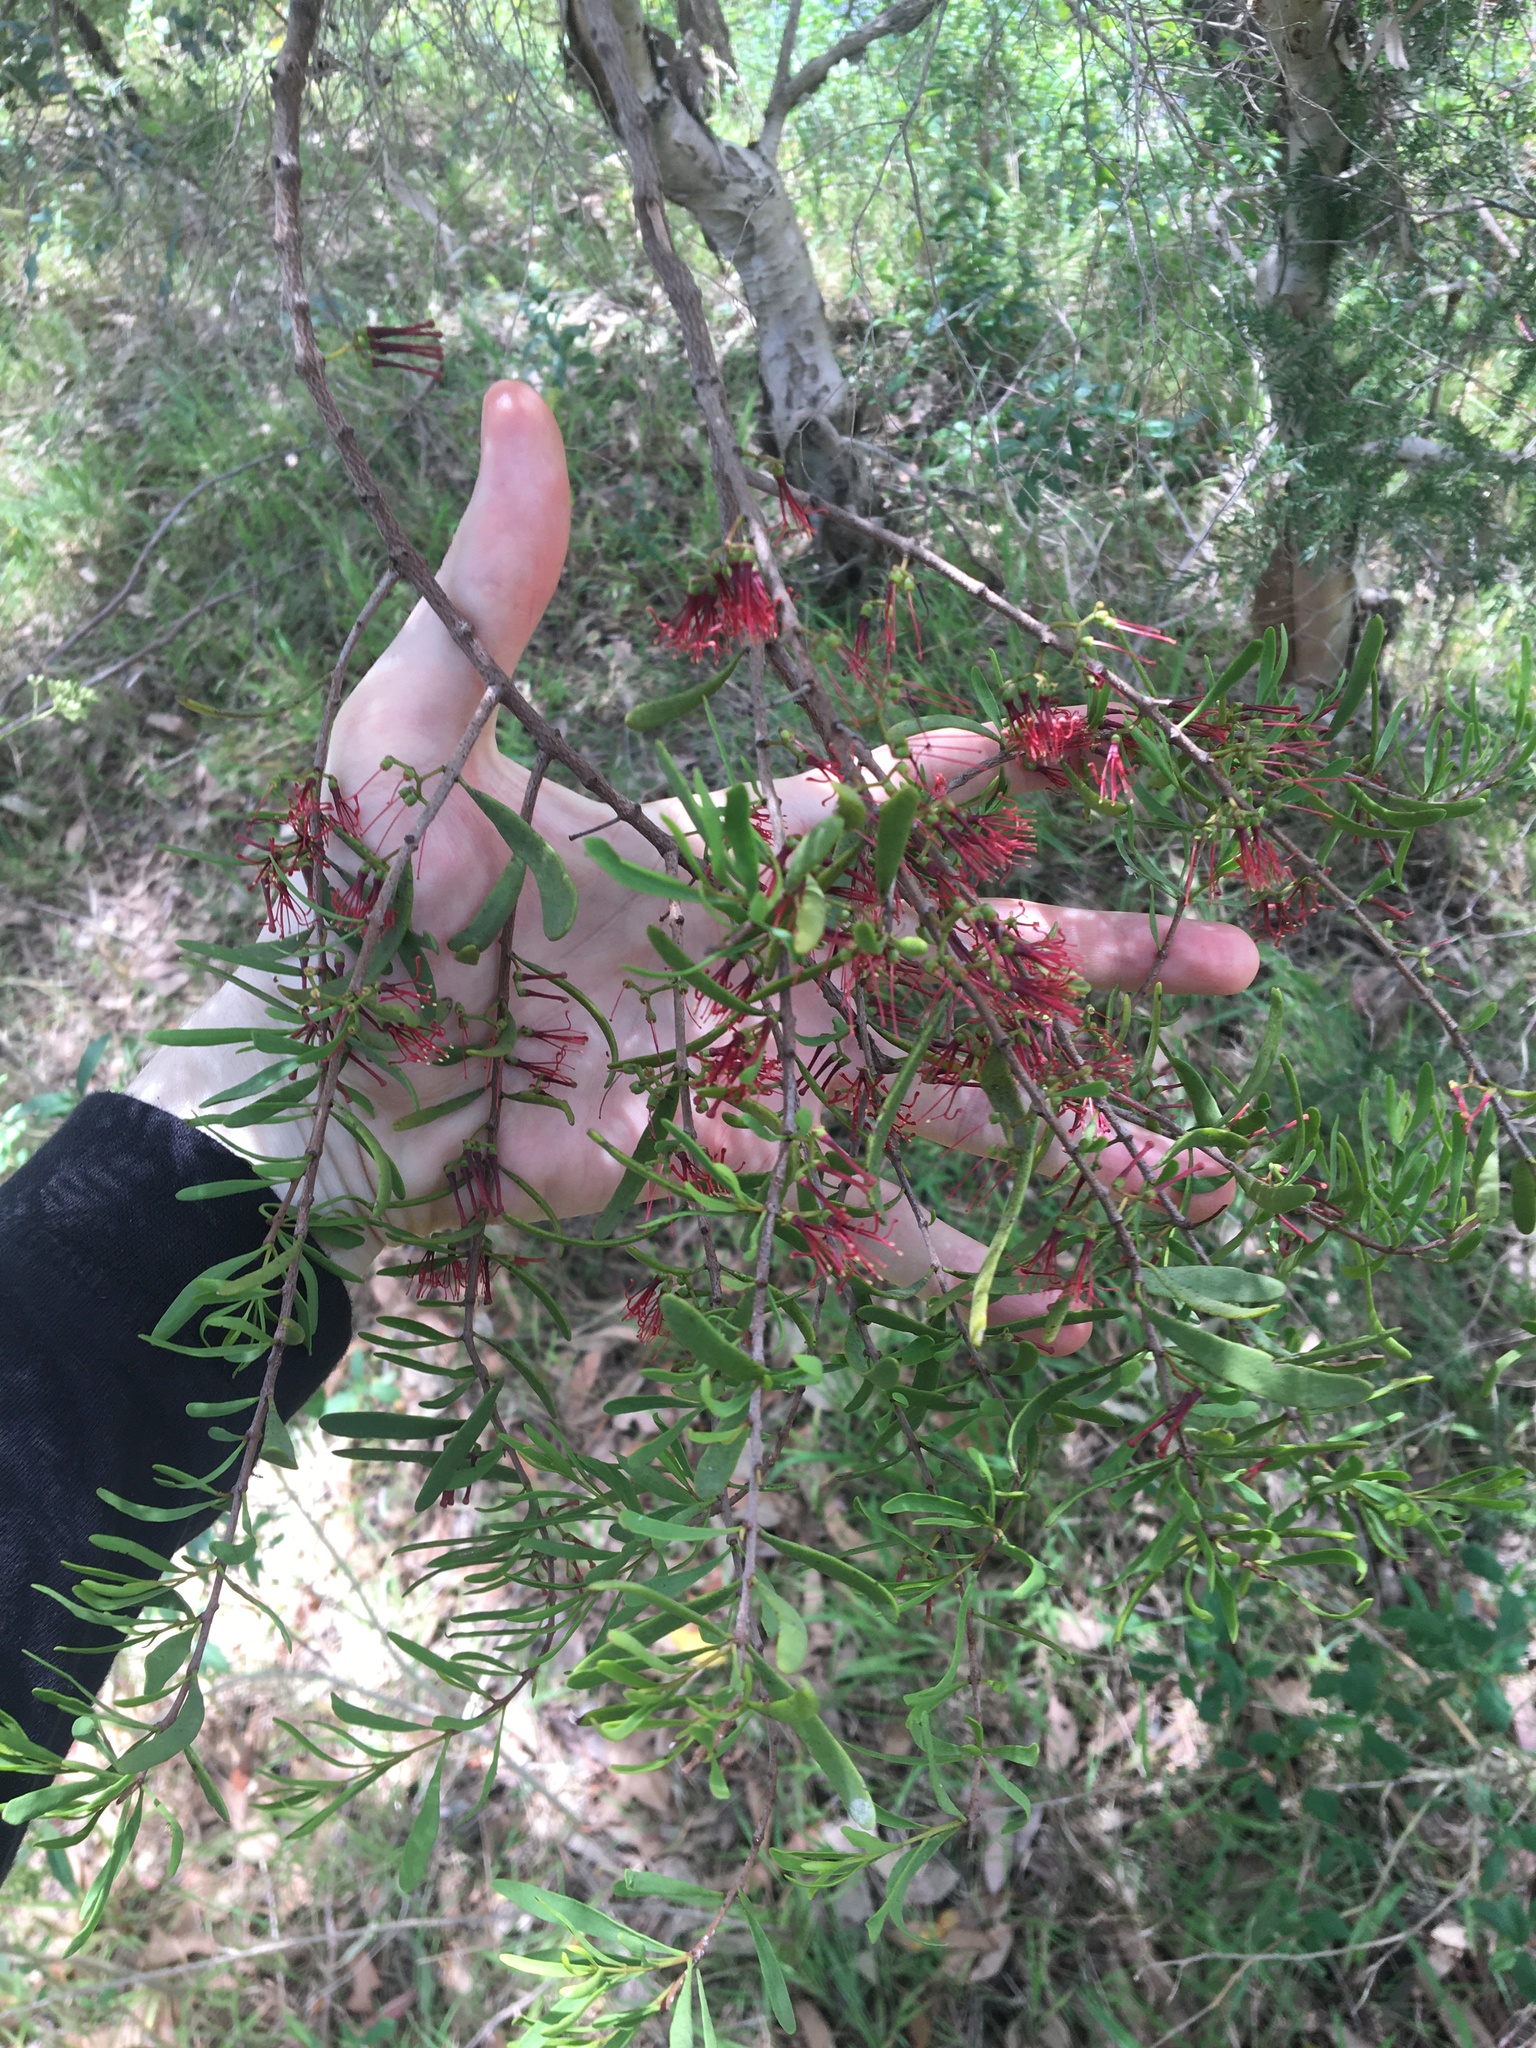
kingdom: Plantae
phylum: Tracheophyta
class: Magnoliopsida
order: Santalales
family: Loranthaceae
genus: Amyema
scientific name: Amyema gaudichaudii
